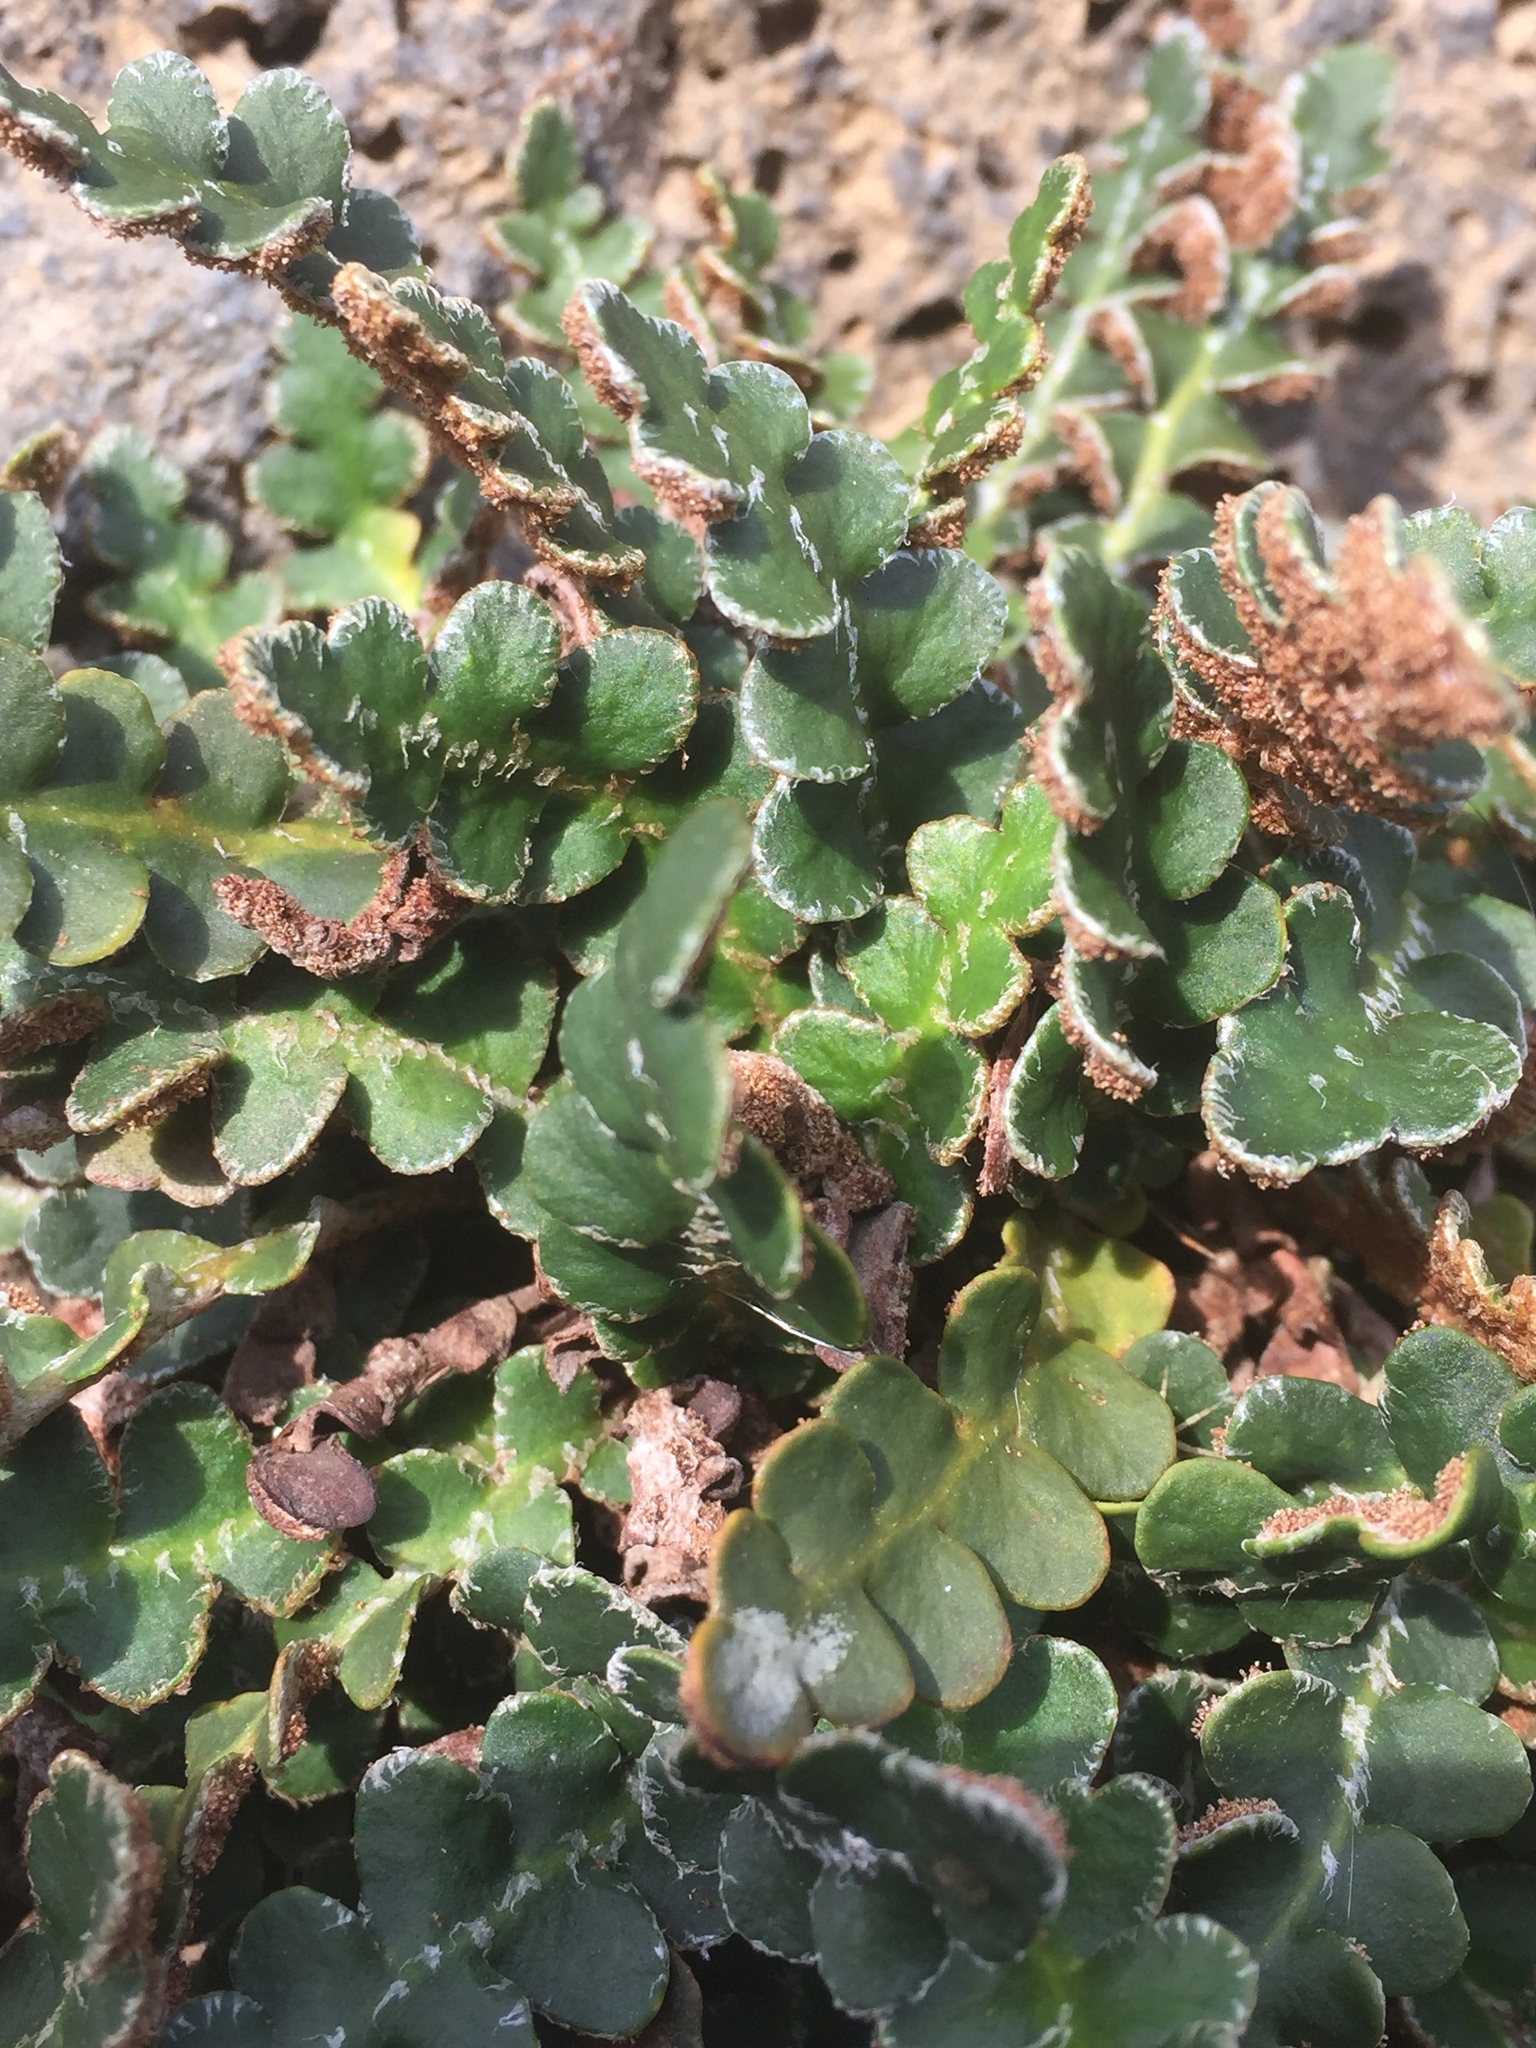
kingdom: Plantae
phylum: Tracheophyta
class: Polypodiopsida
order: Polypodiales
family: Aspleniaceae
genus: Asplenium
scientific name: Asplenium ceterach
